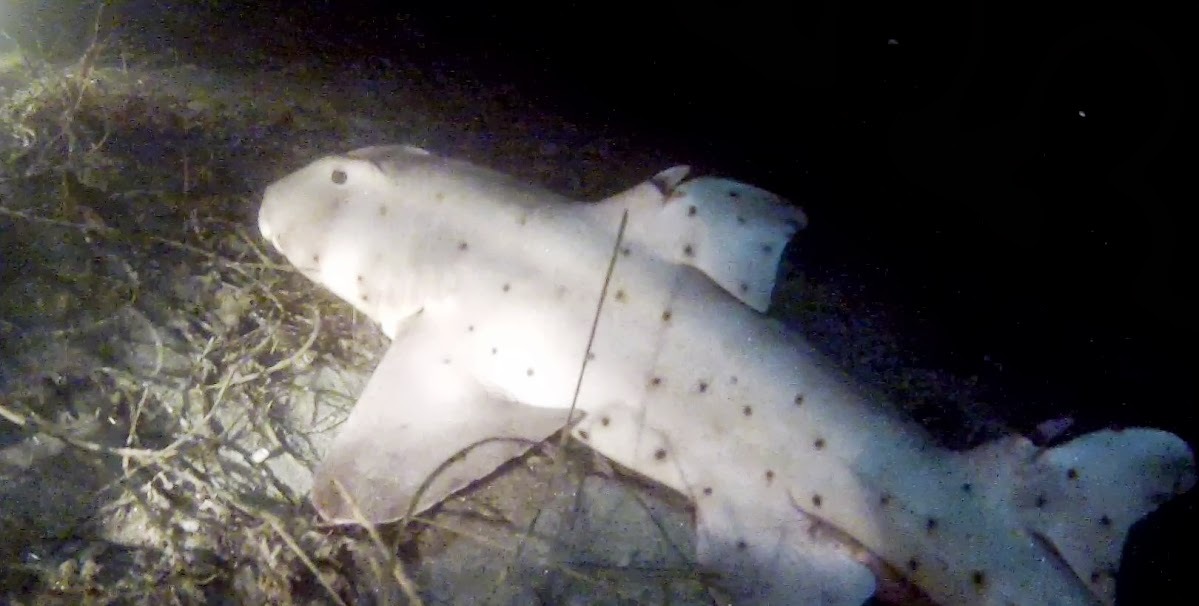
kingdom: Animalia
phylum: Chordata
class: Elasmobranchii
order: Heterodontiformes
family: Heterodontidae
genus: Heterodontus
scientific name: Heterodontus francisci
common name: Horn shark
